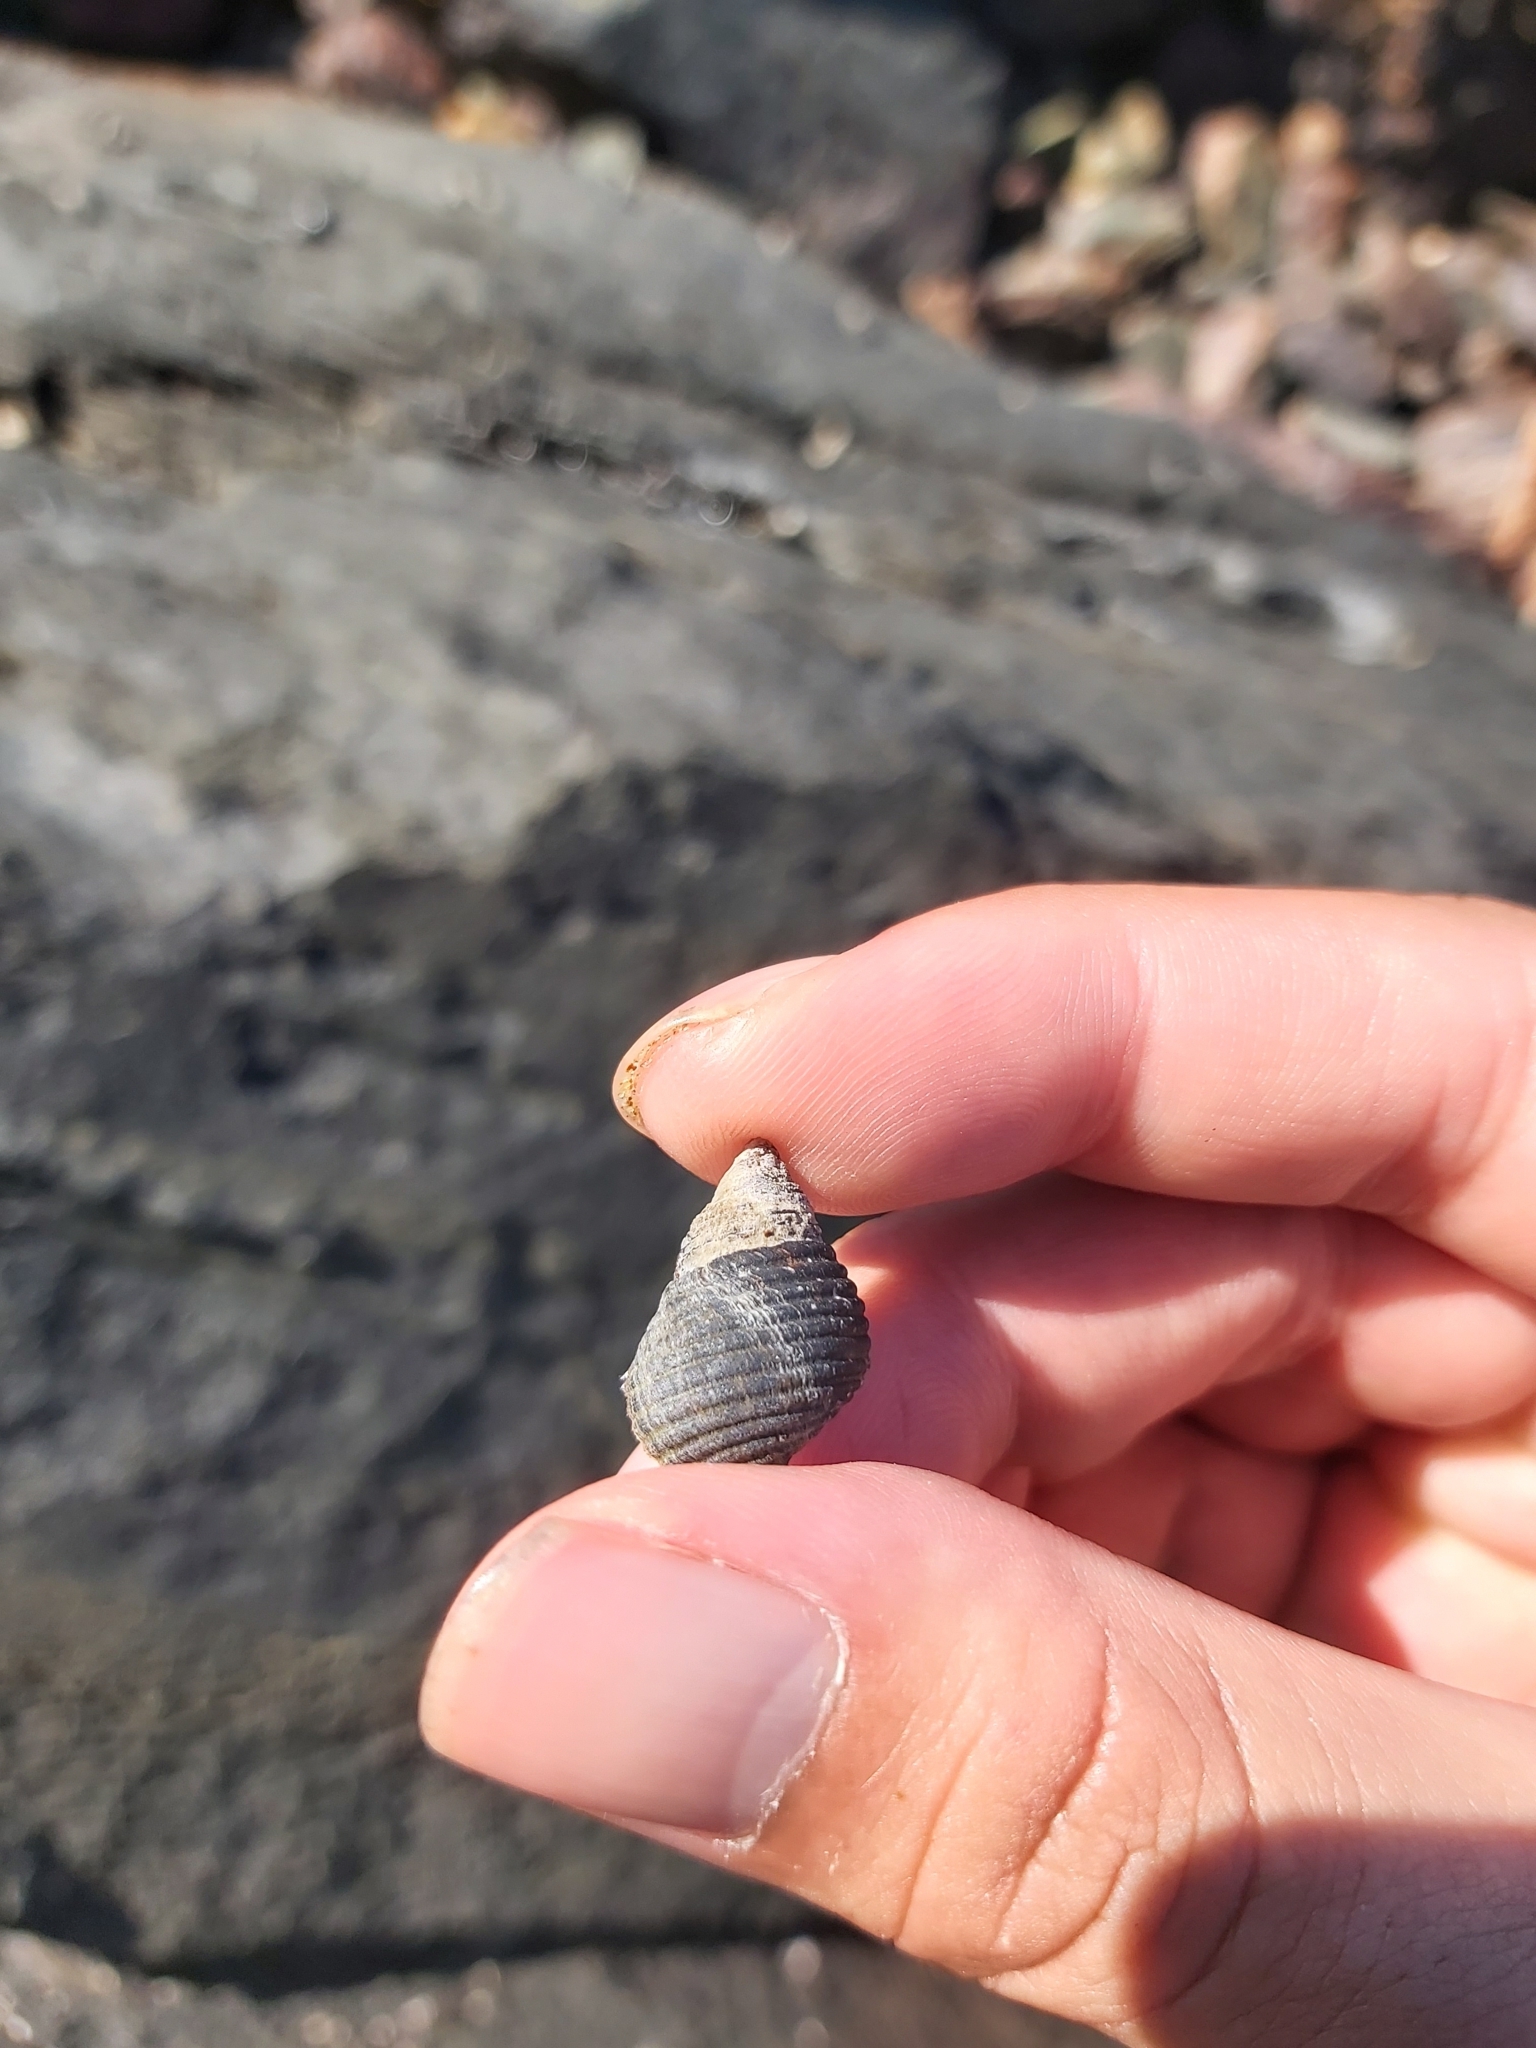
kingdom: Animalia
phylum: Mollusca
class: Gastropoda
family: Planaxidae
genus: Planaxis
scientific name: Planaxis sulcatus
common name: Furrowed planaxis
